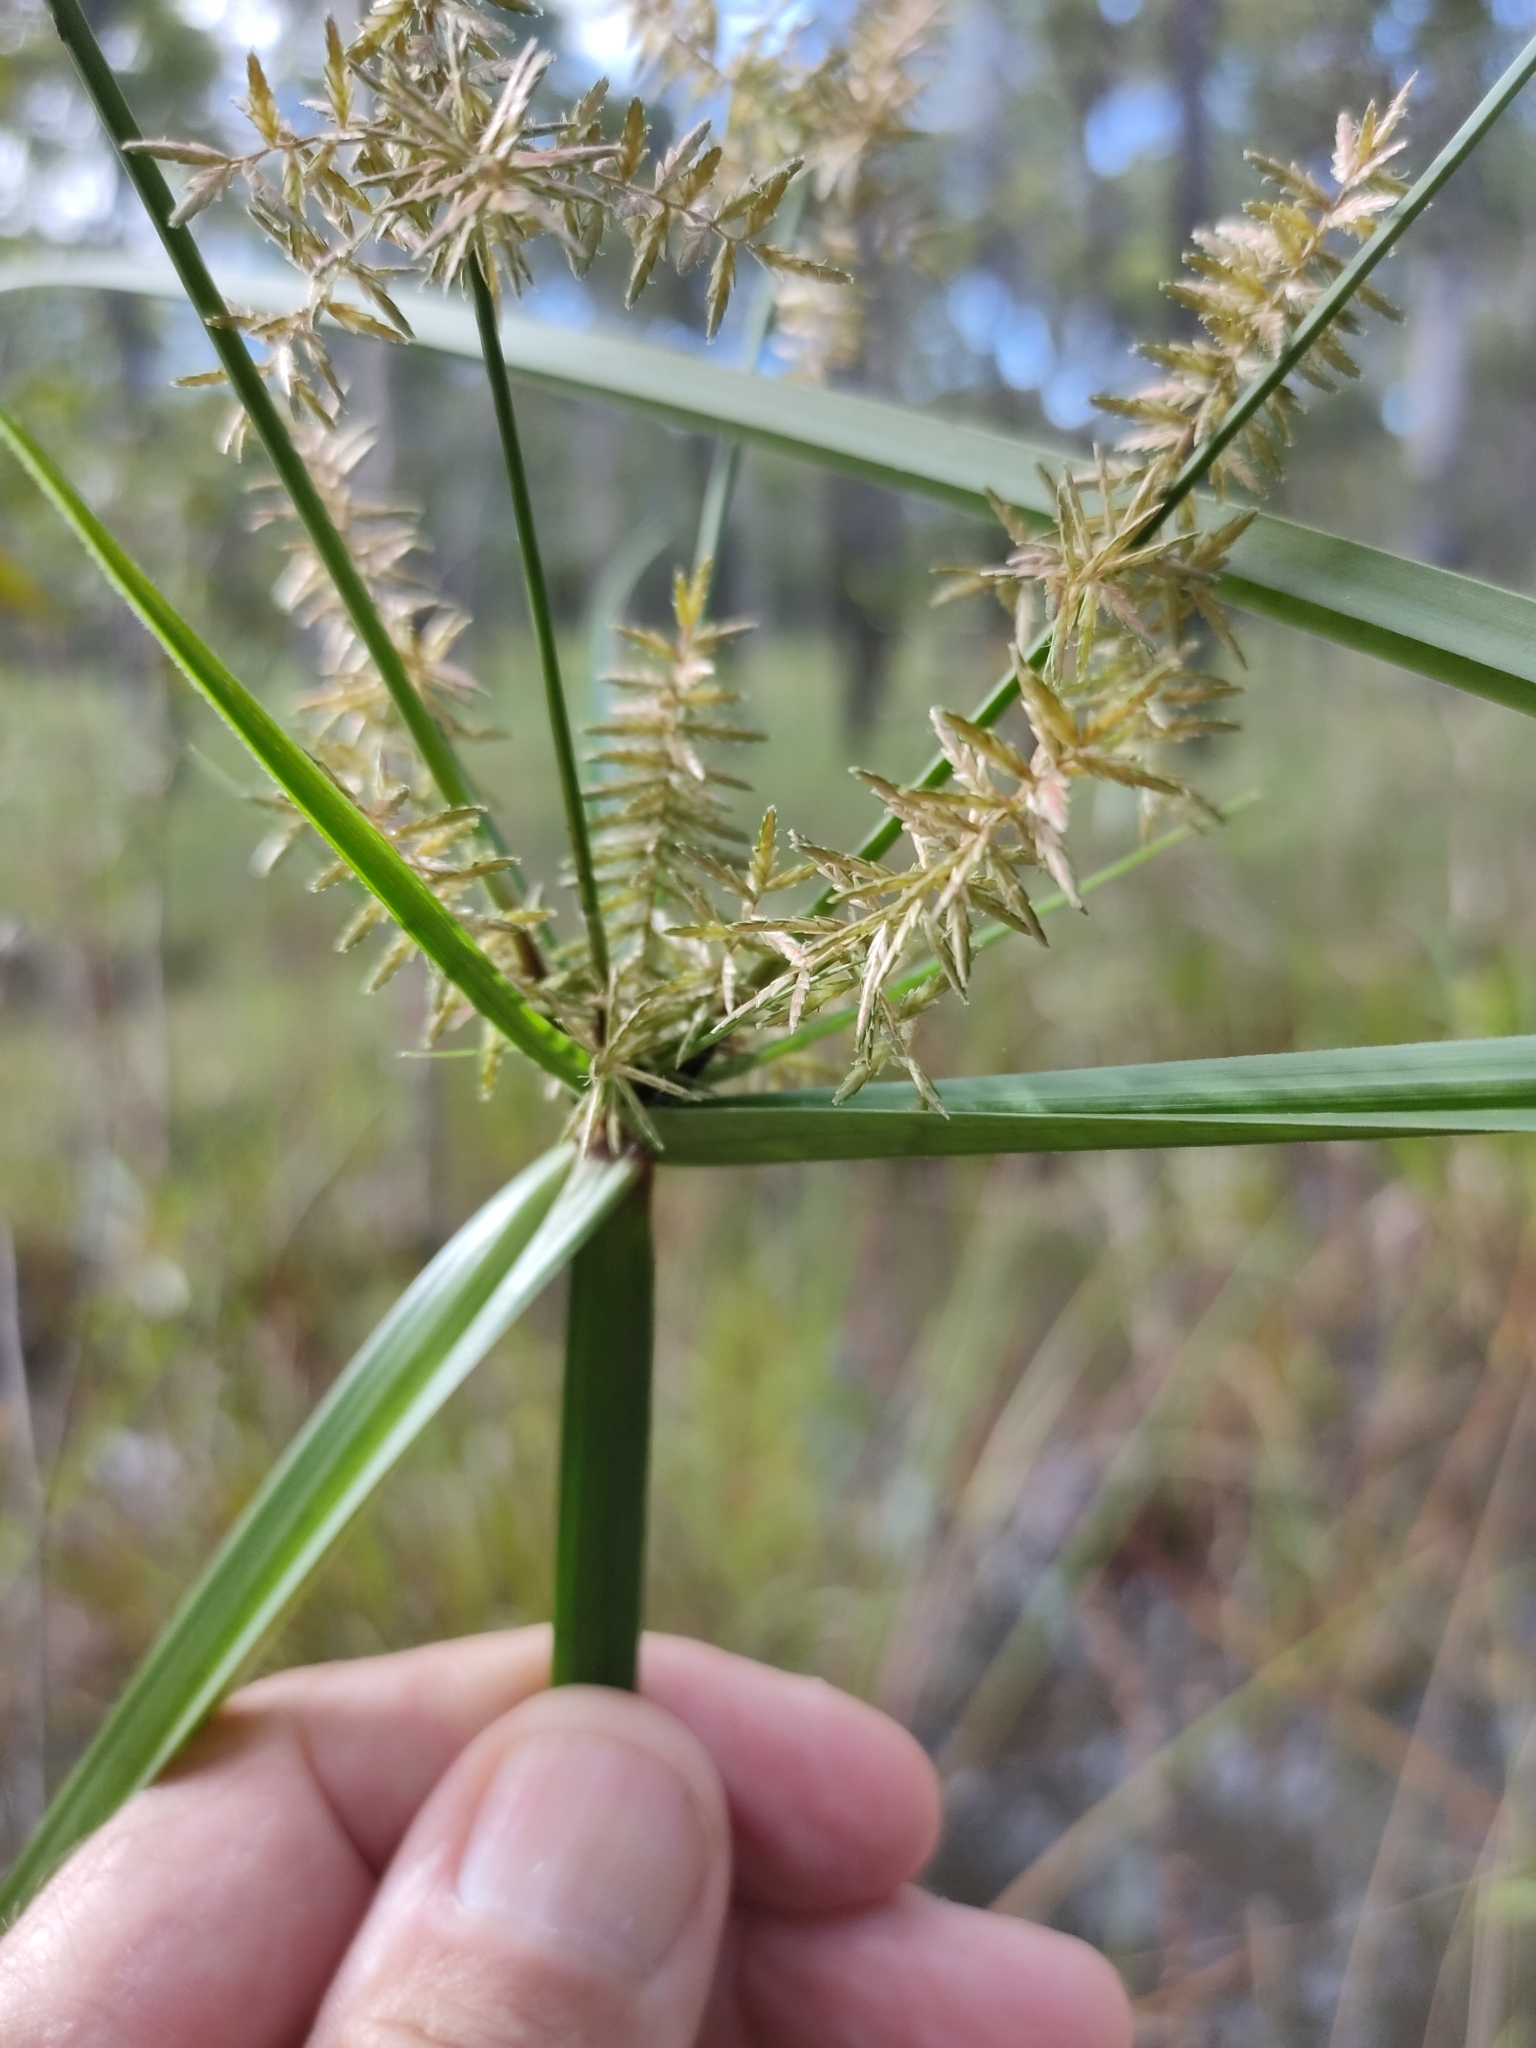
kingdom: Plantae
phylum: Tracheophyta
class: Liliopsida
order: Poales
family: Cyperaceae
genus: Cyperus
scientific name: Cyperus pilosus
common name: Fuzzy flatsedge
